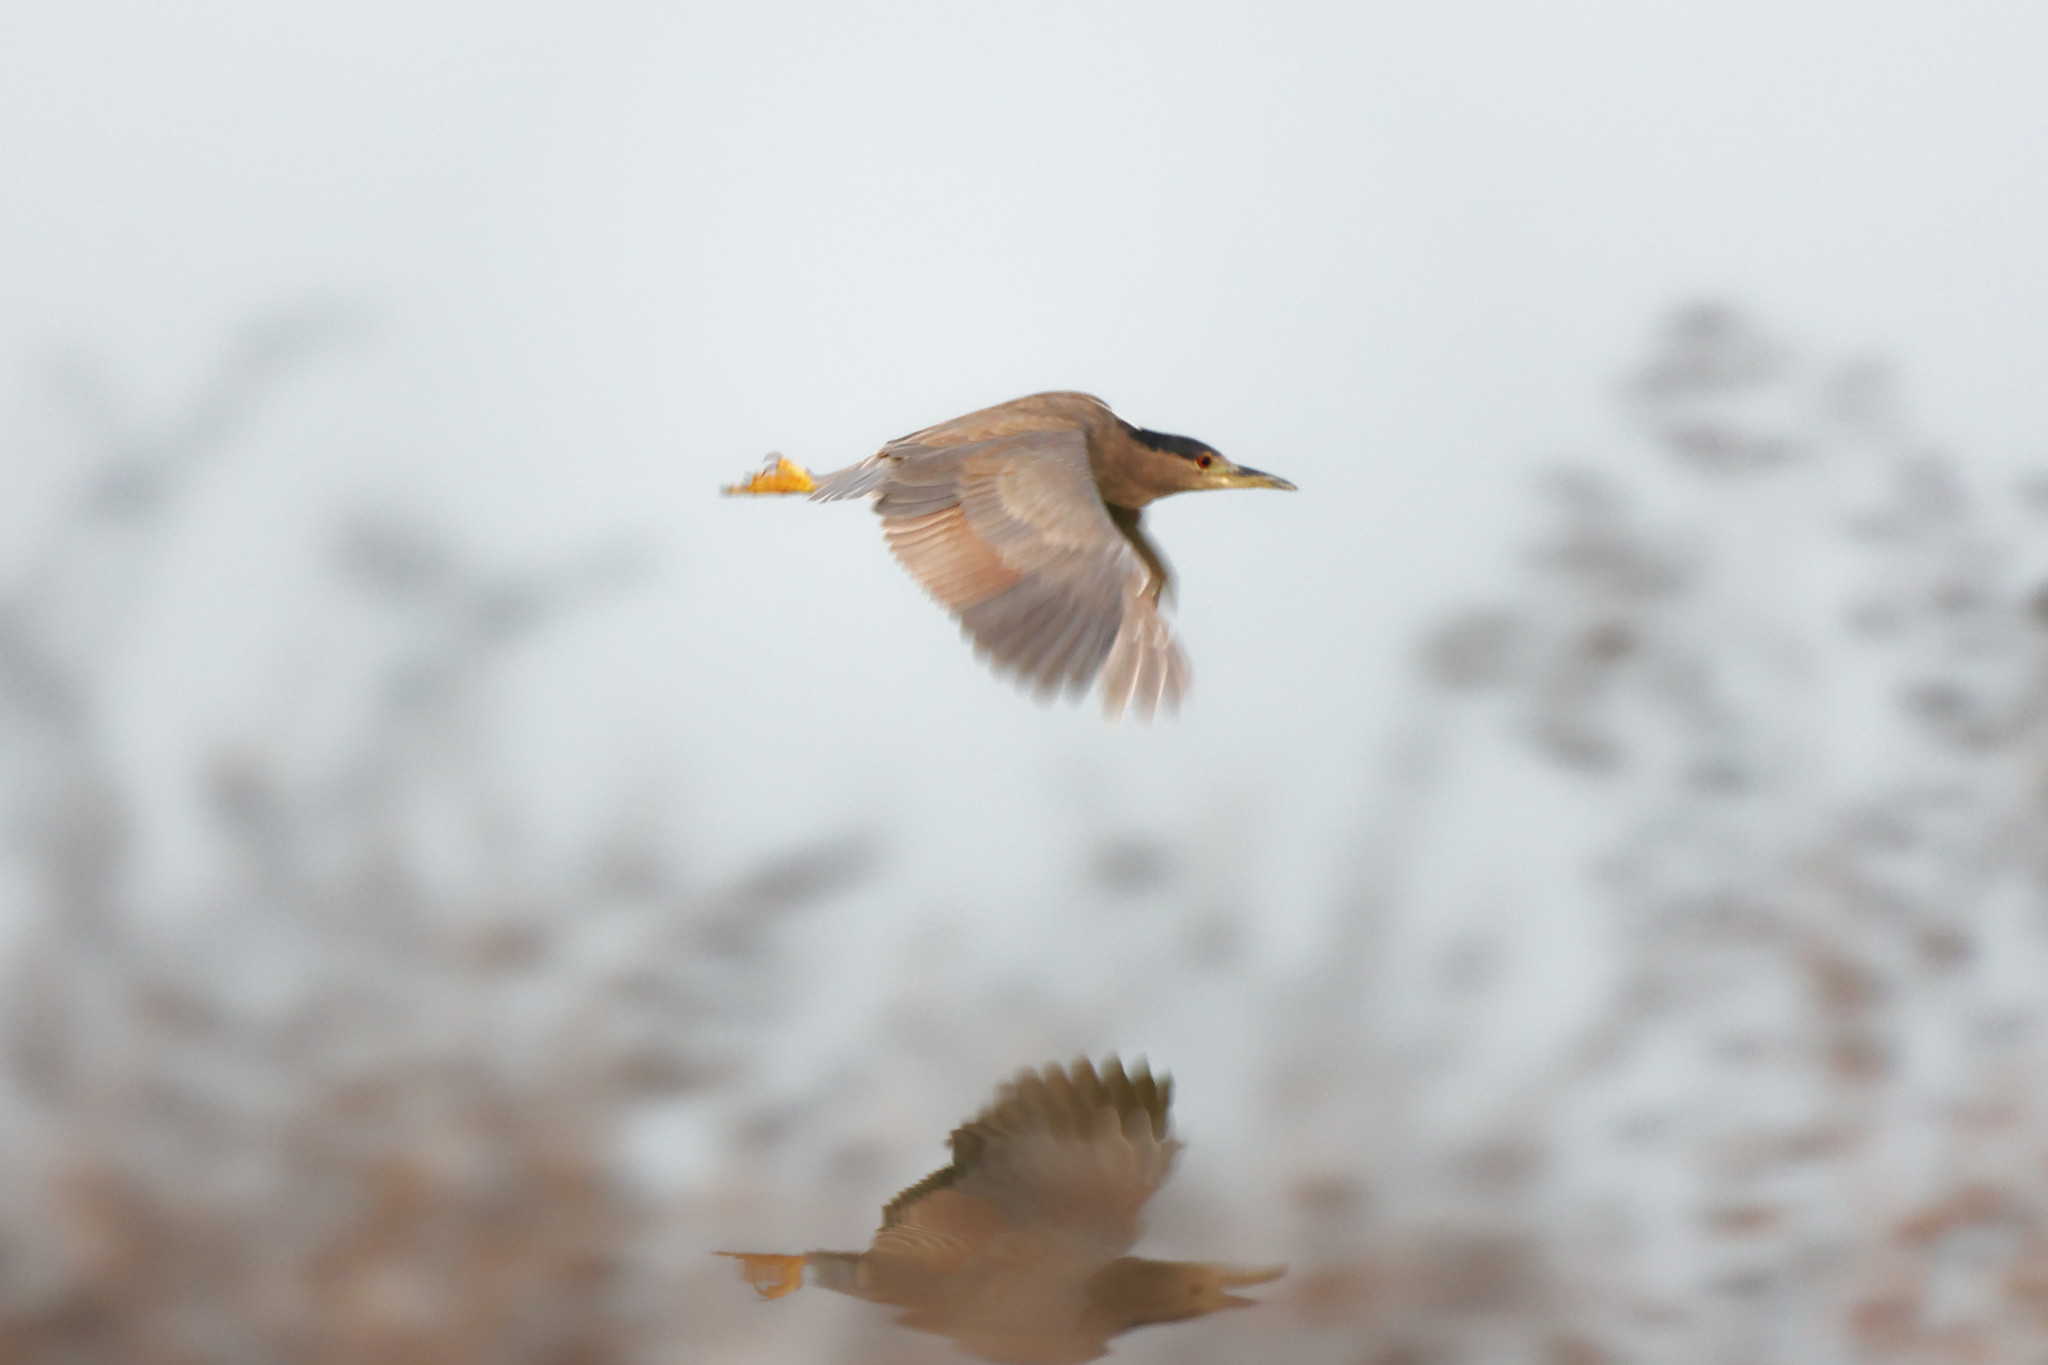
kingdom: Animalia
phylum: Chordata
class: Aves
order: Pelecaniformes
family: Ardeidae
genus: Nycticorax
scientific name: Nycticorax nycticorax
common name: Black-crowned night heron
